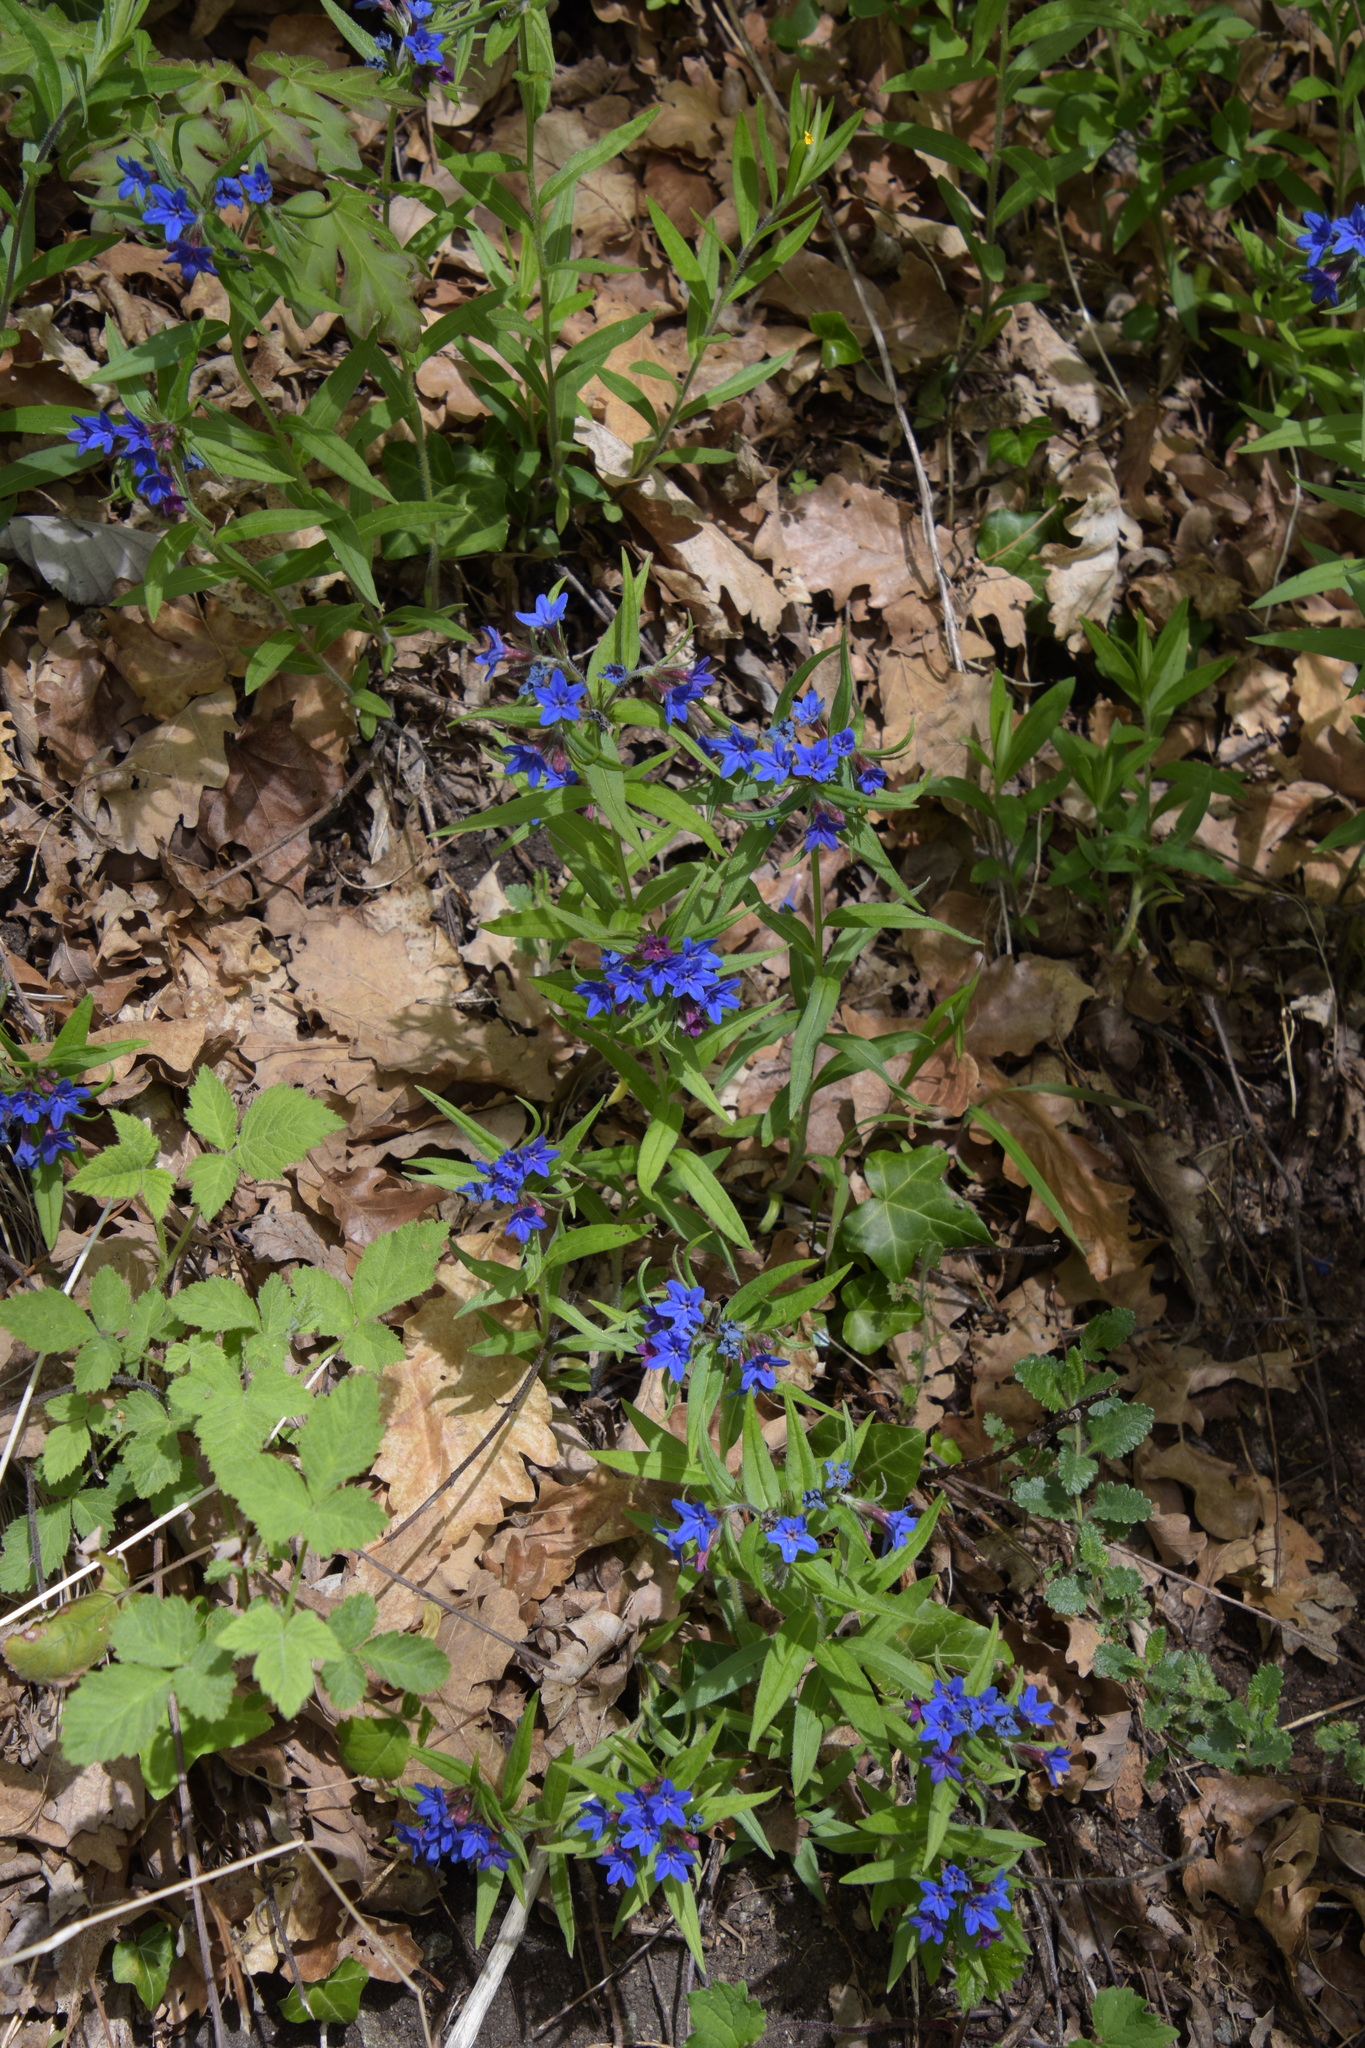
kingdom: Plantae
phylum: Tracheophyta
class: Magnoliopsida
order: Boraginales
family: Boraginaceae
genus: Aegonychon
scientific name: Aegonychon purpurocaeruleum
